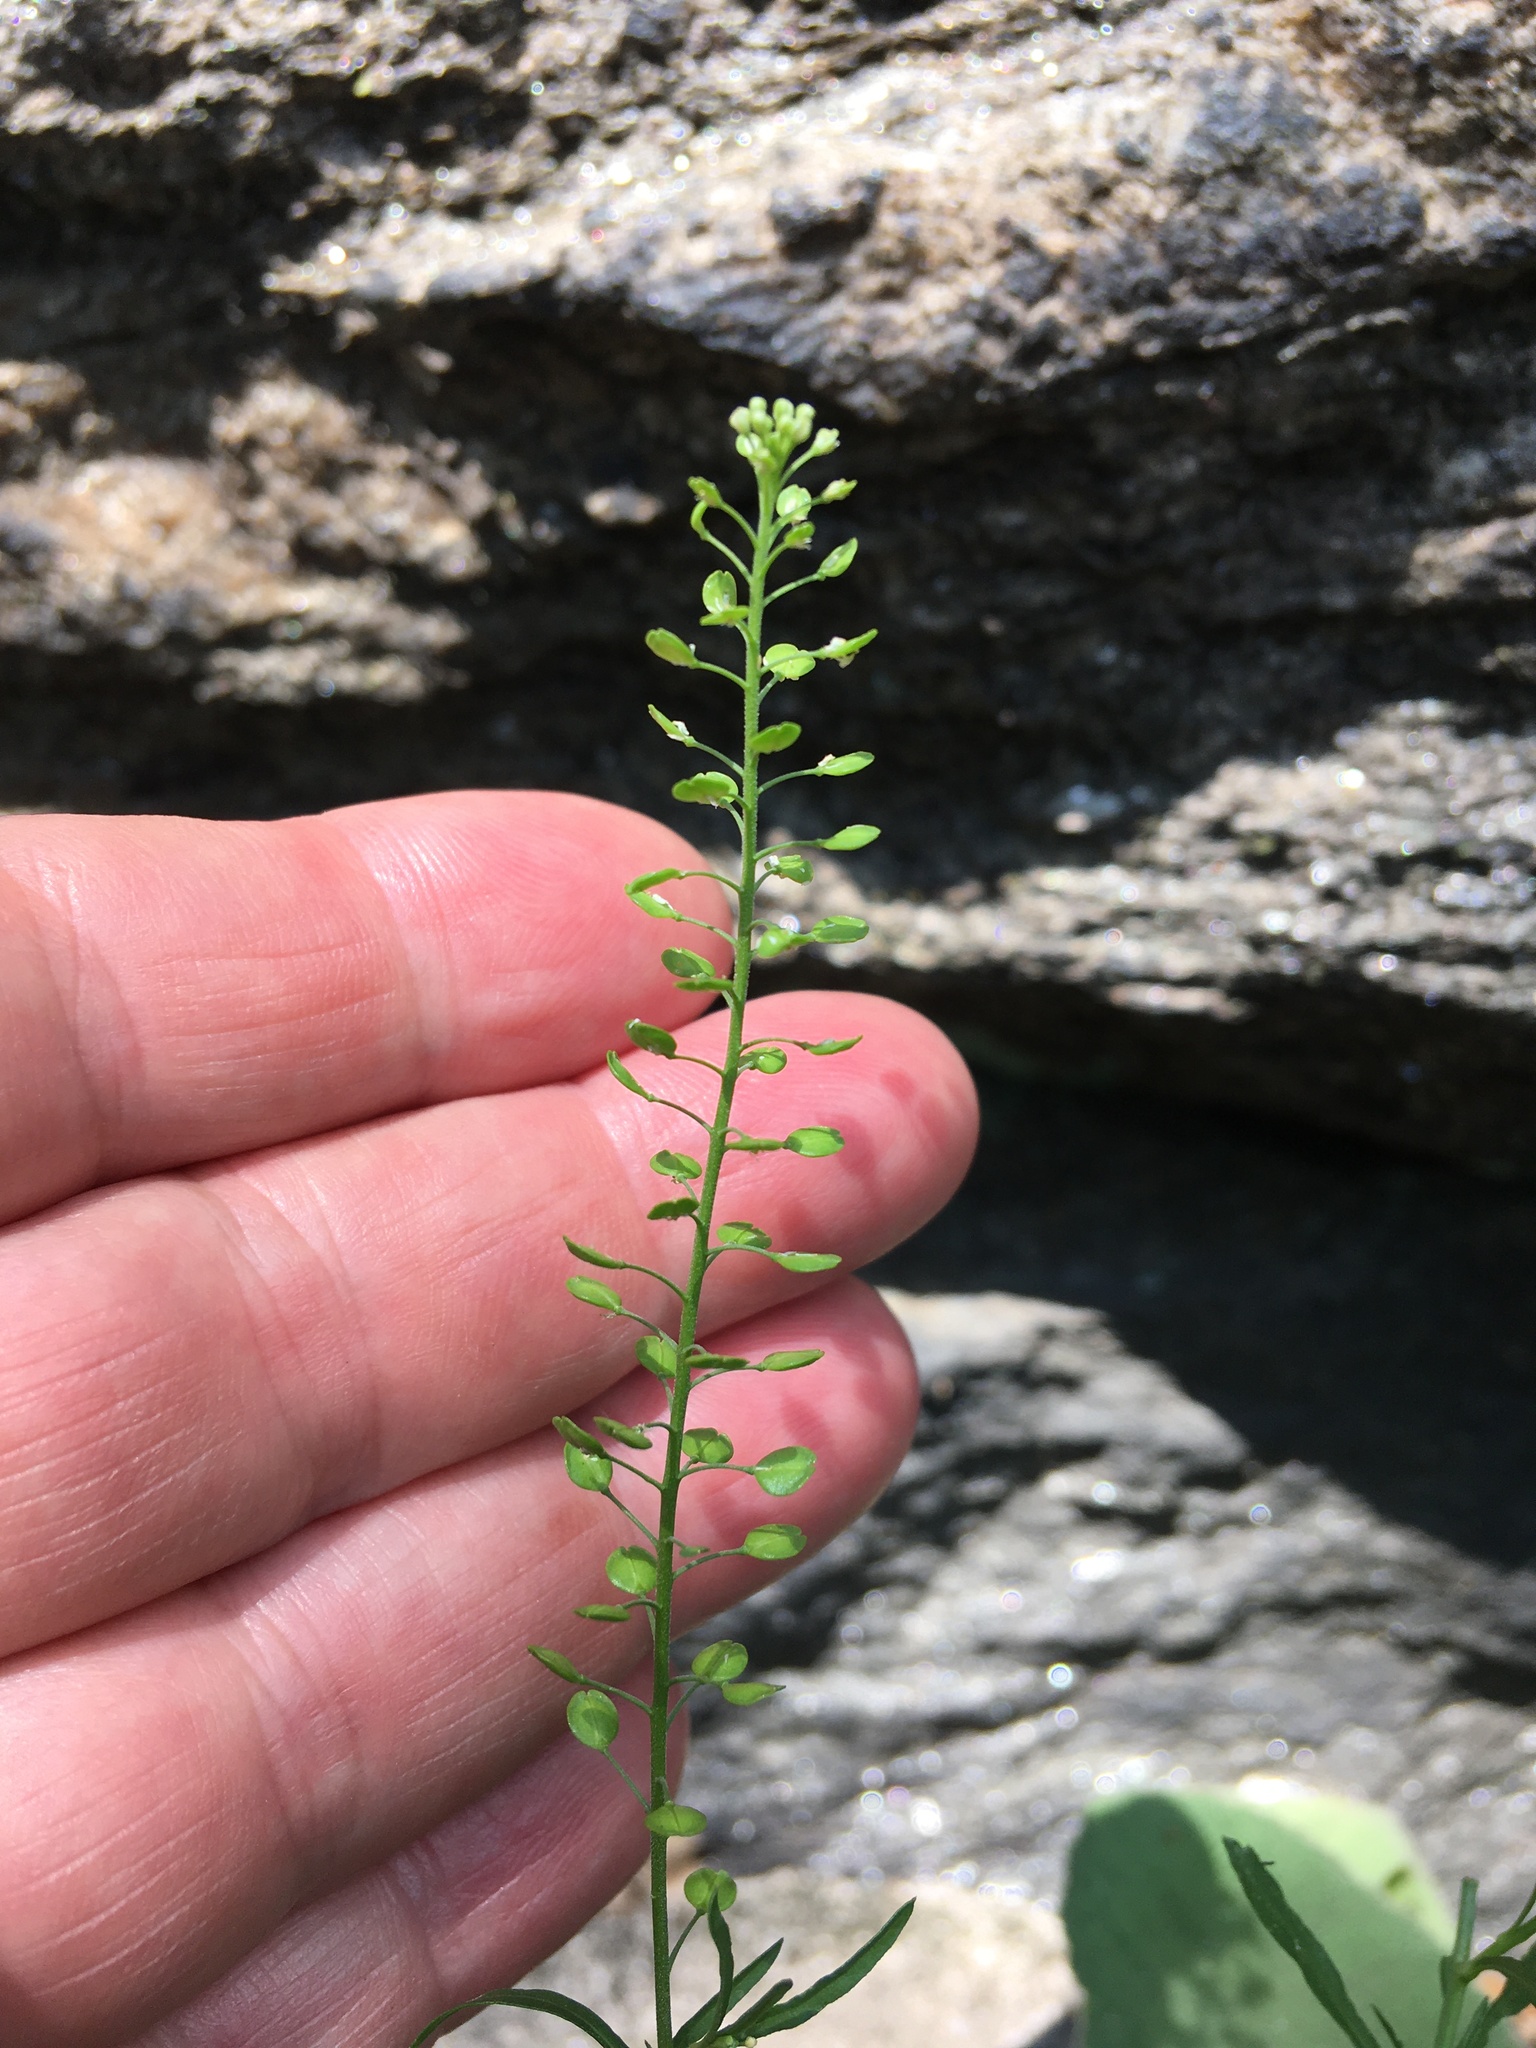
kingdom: Plantae
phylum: Tracheophyta
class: Magnoliopsida
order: Brassicales
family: Brassicaceae
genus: Lepidium
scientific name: Lepidium virginicum
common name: Least pepperwort
